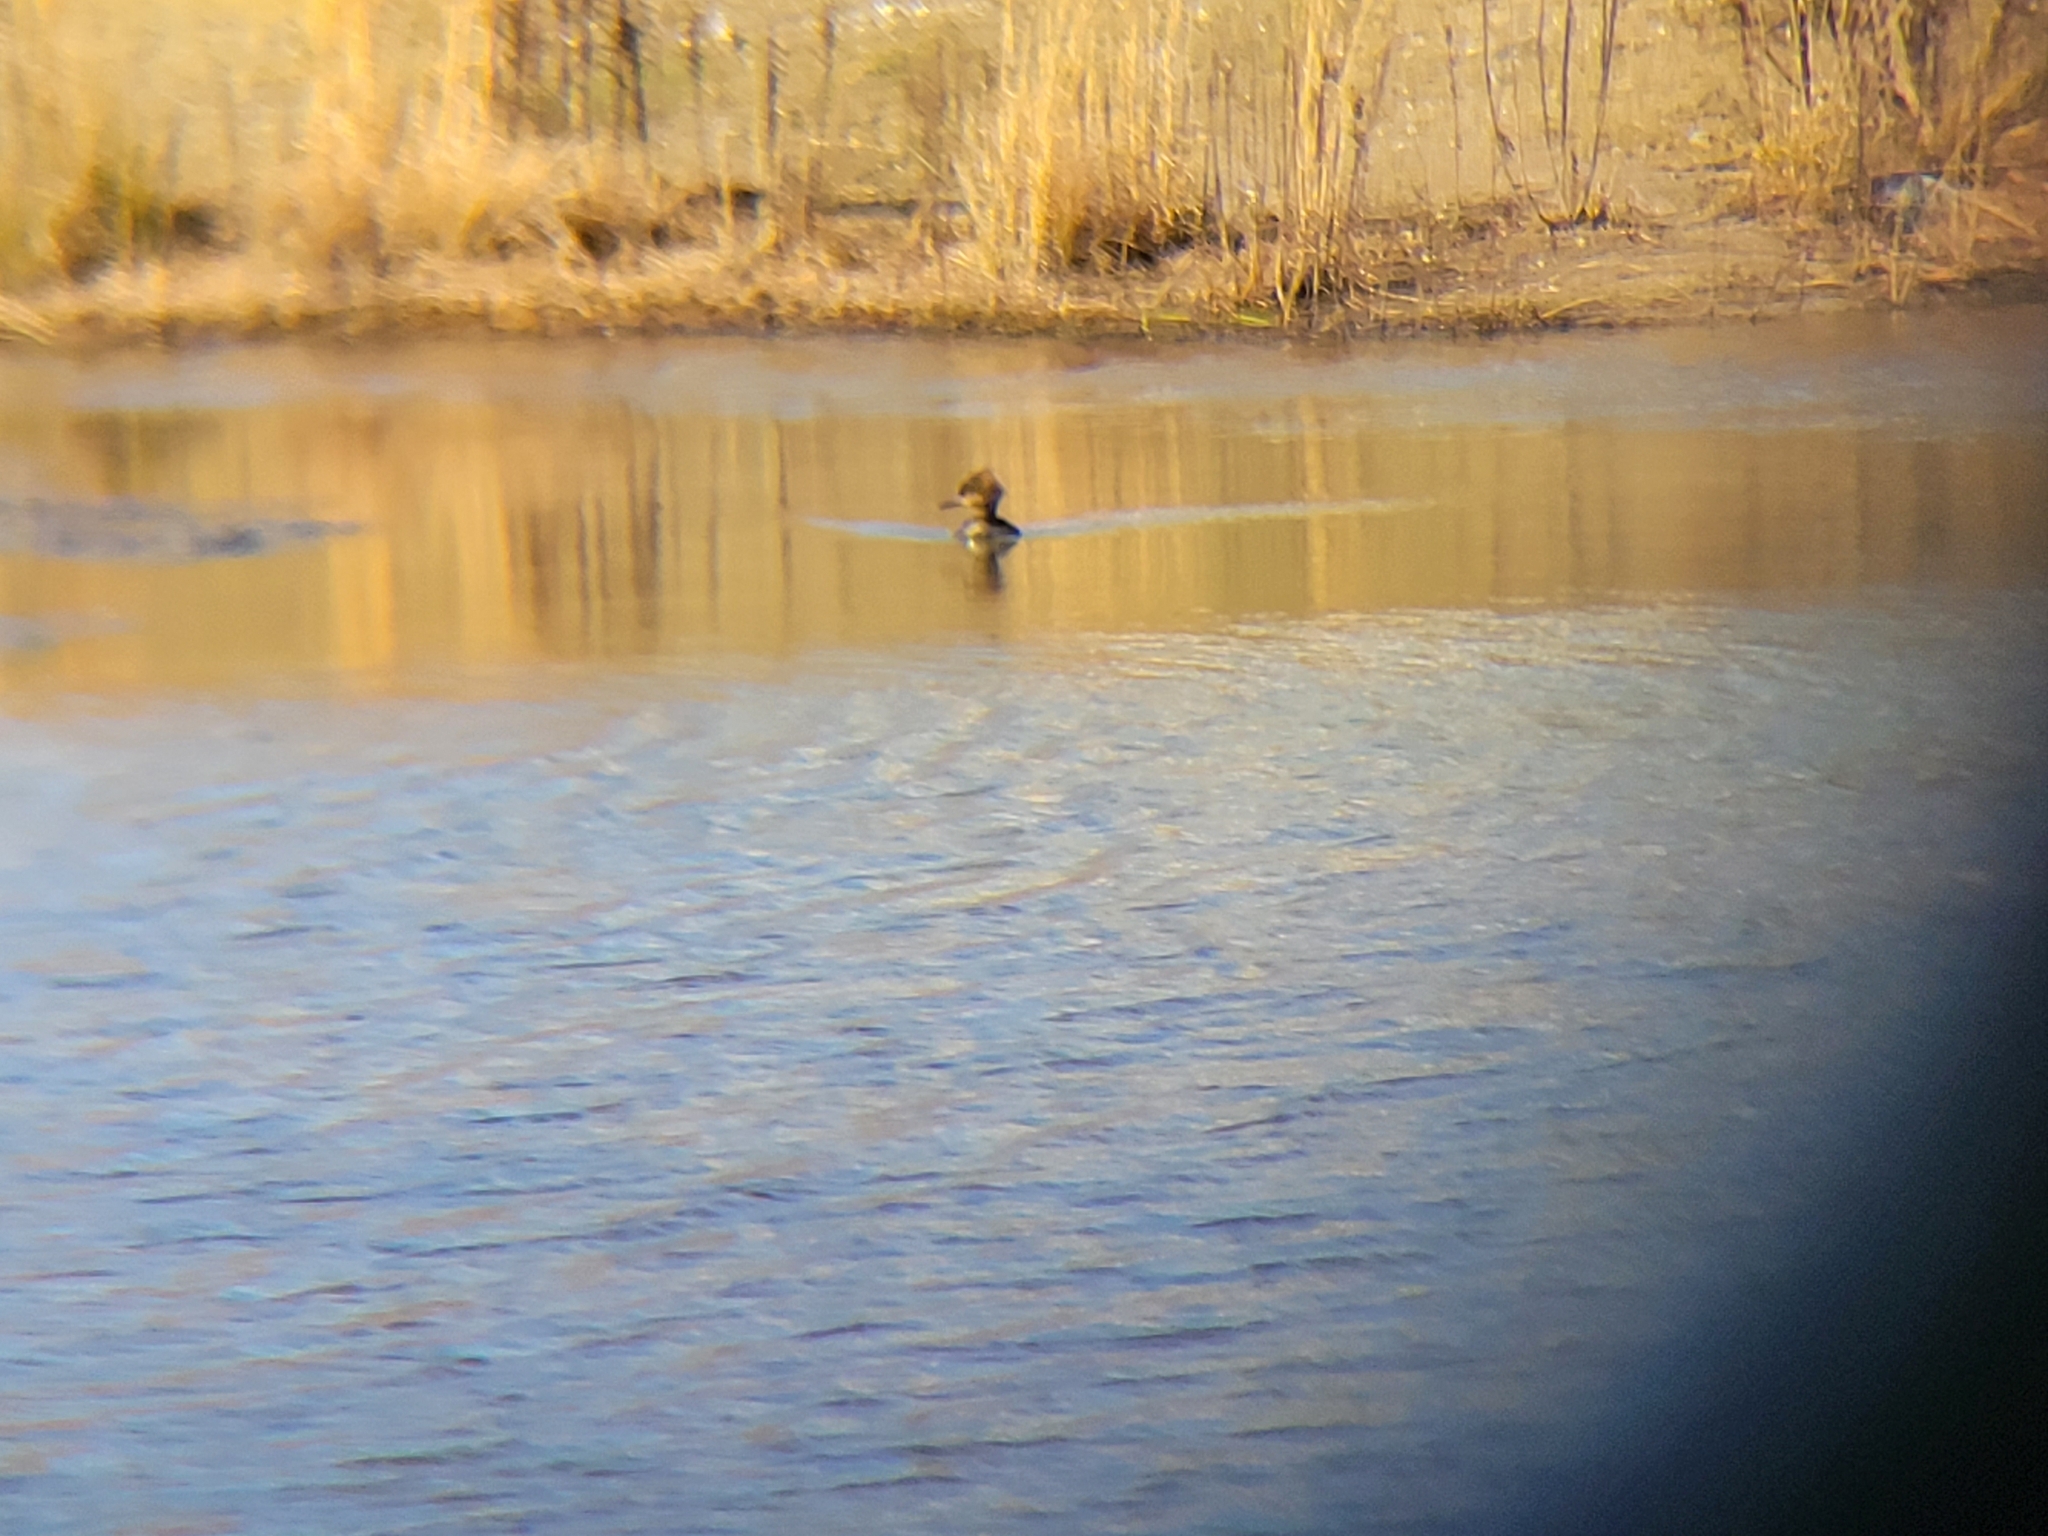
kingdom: Animalia
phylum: Chordata
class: Aves
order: Anseriformes
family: Anatidae
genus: Lophodytes
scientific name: Lophodytes cucullatus
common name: Hooded merganser
